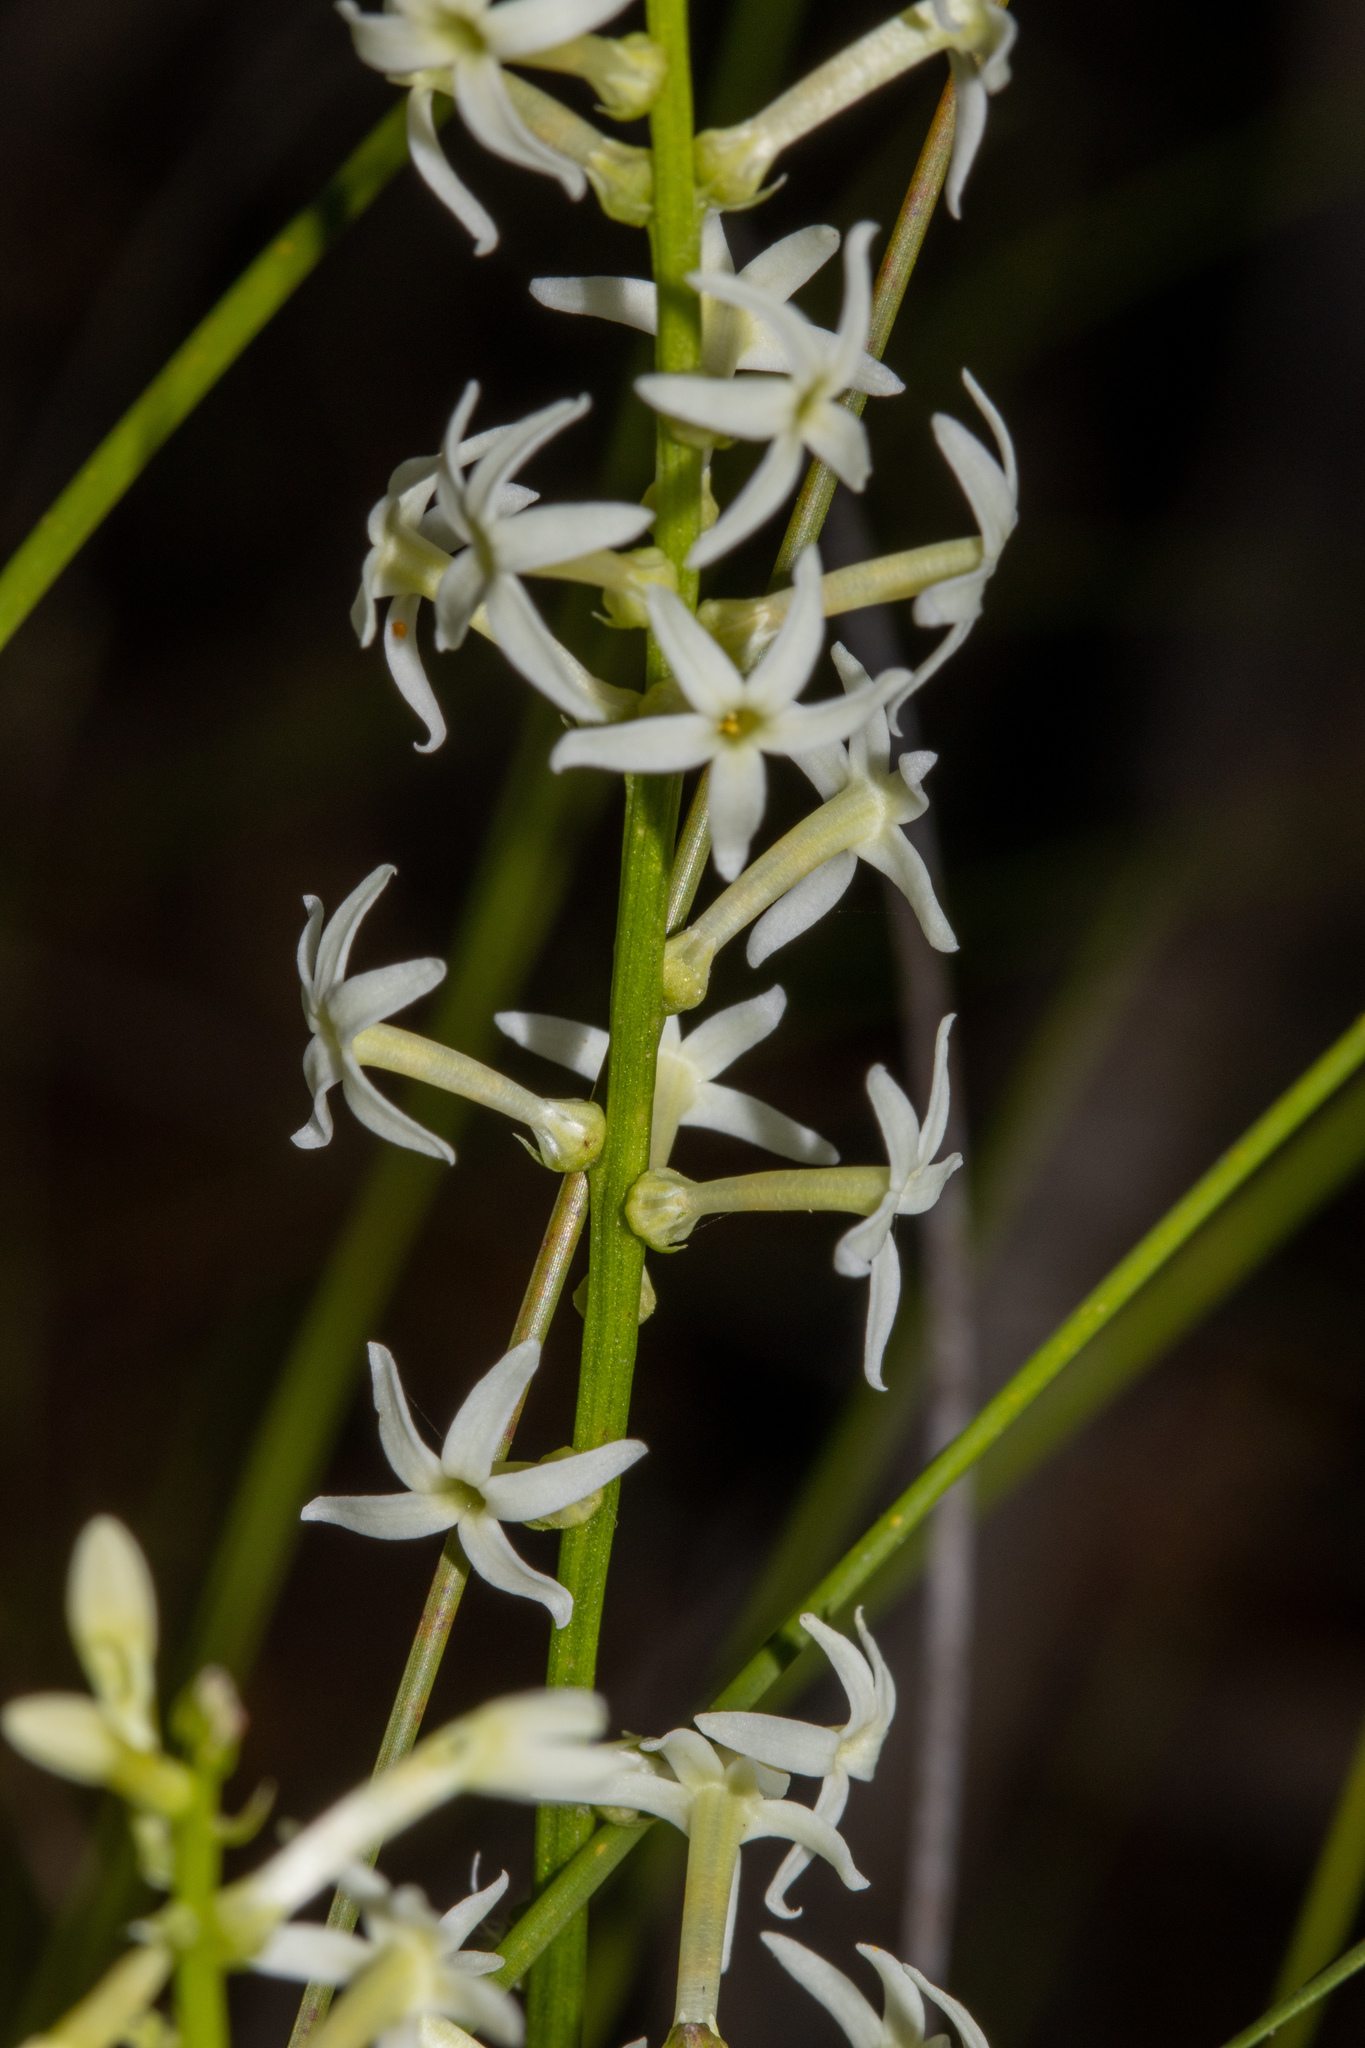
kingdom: Plantae
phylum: Tracheophyta
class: Magnoliopsida
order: Celastrales
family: Celastraceae
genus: Stackhousia
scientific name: Stackhousia monogyna
